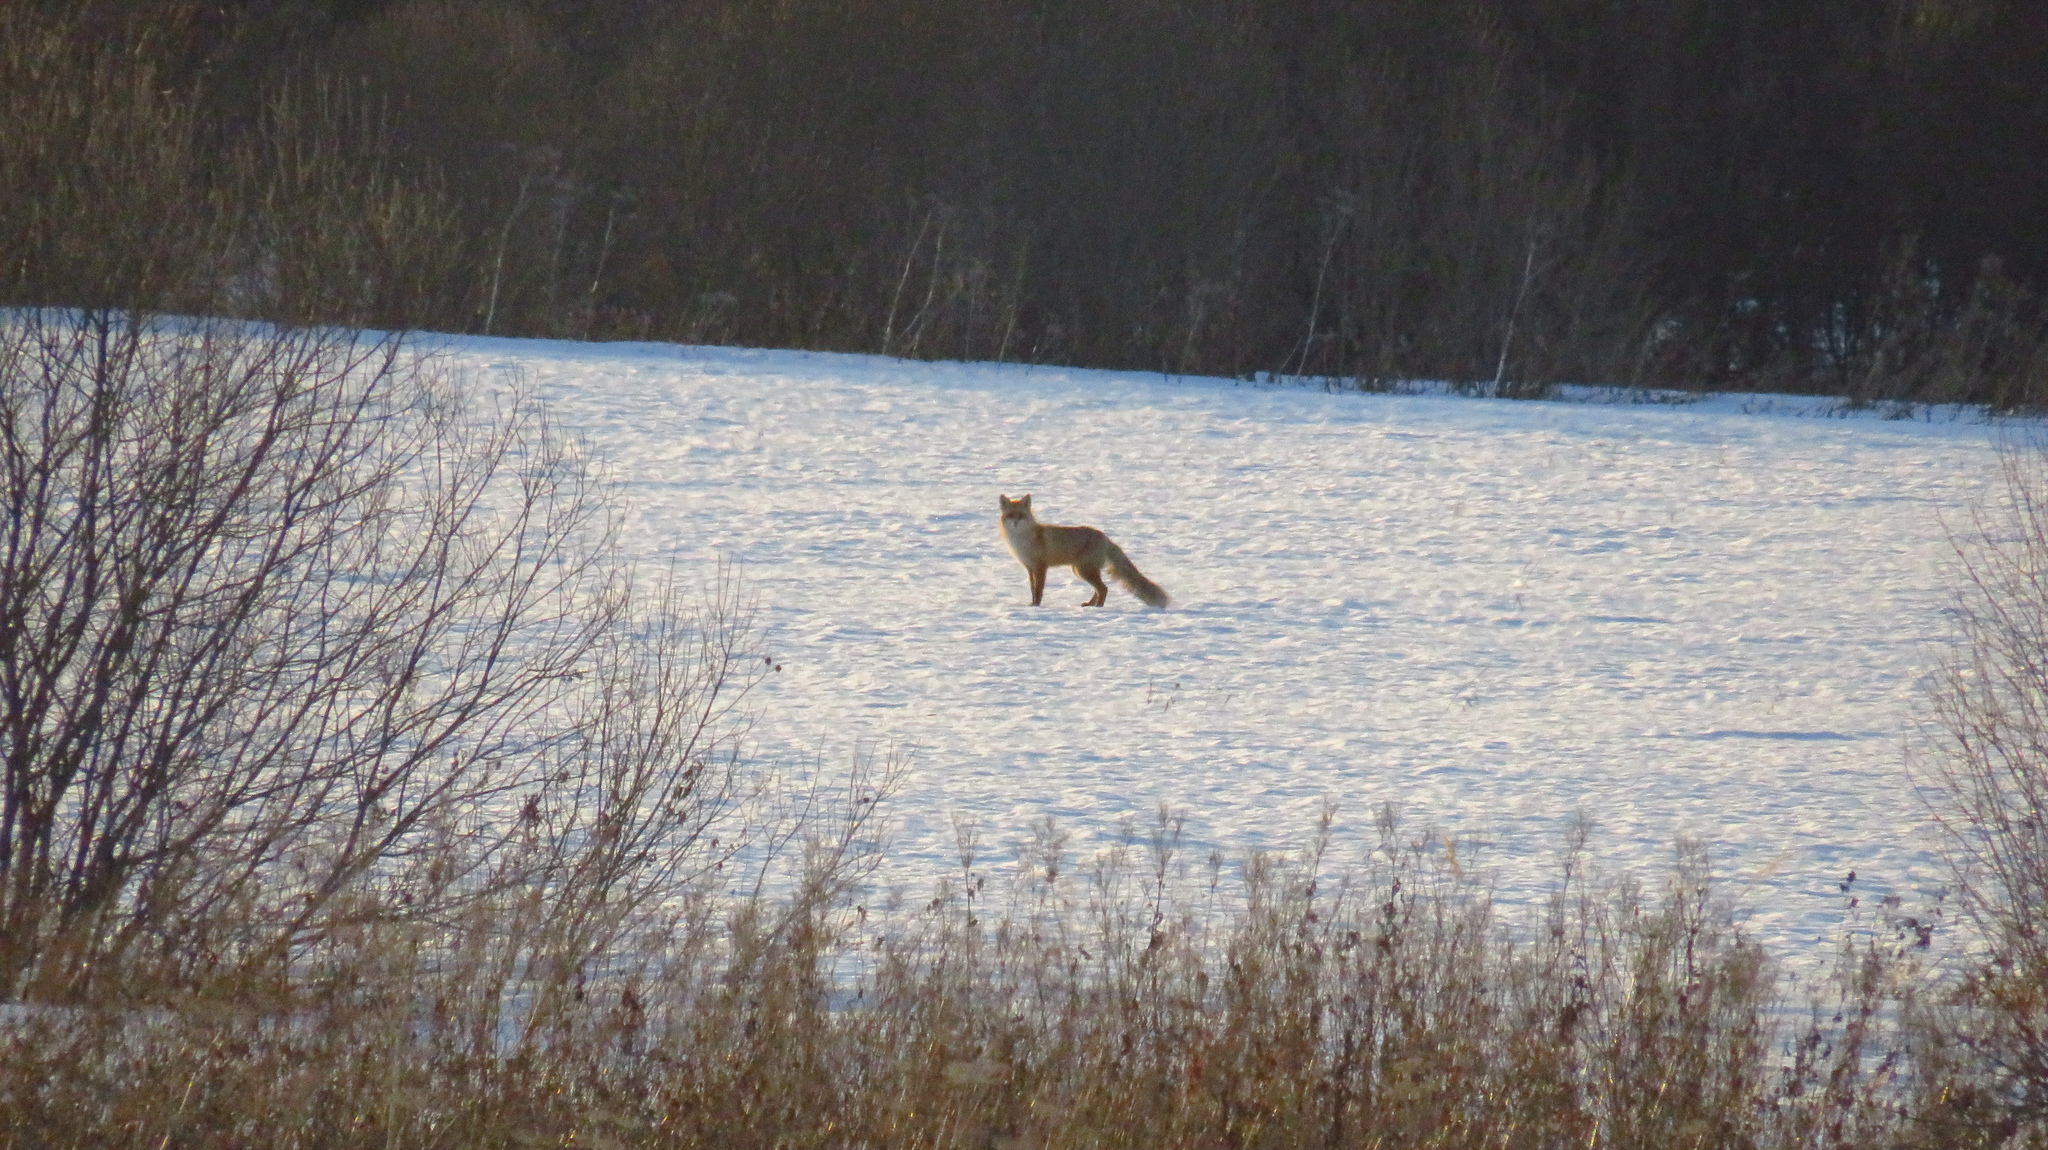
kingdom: Animalia
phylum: Chordata
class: Mammalia
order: Carnivora
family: Canidae
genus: Vulpes
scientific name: Vulpes vulpes
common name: Red fox
